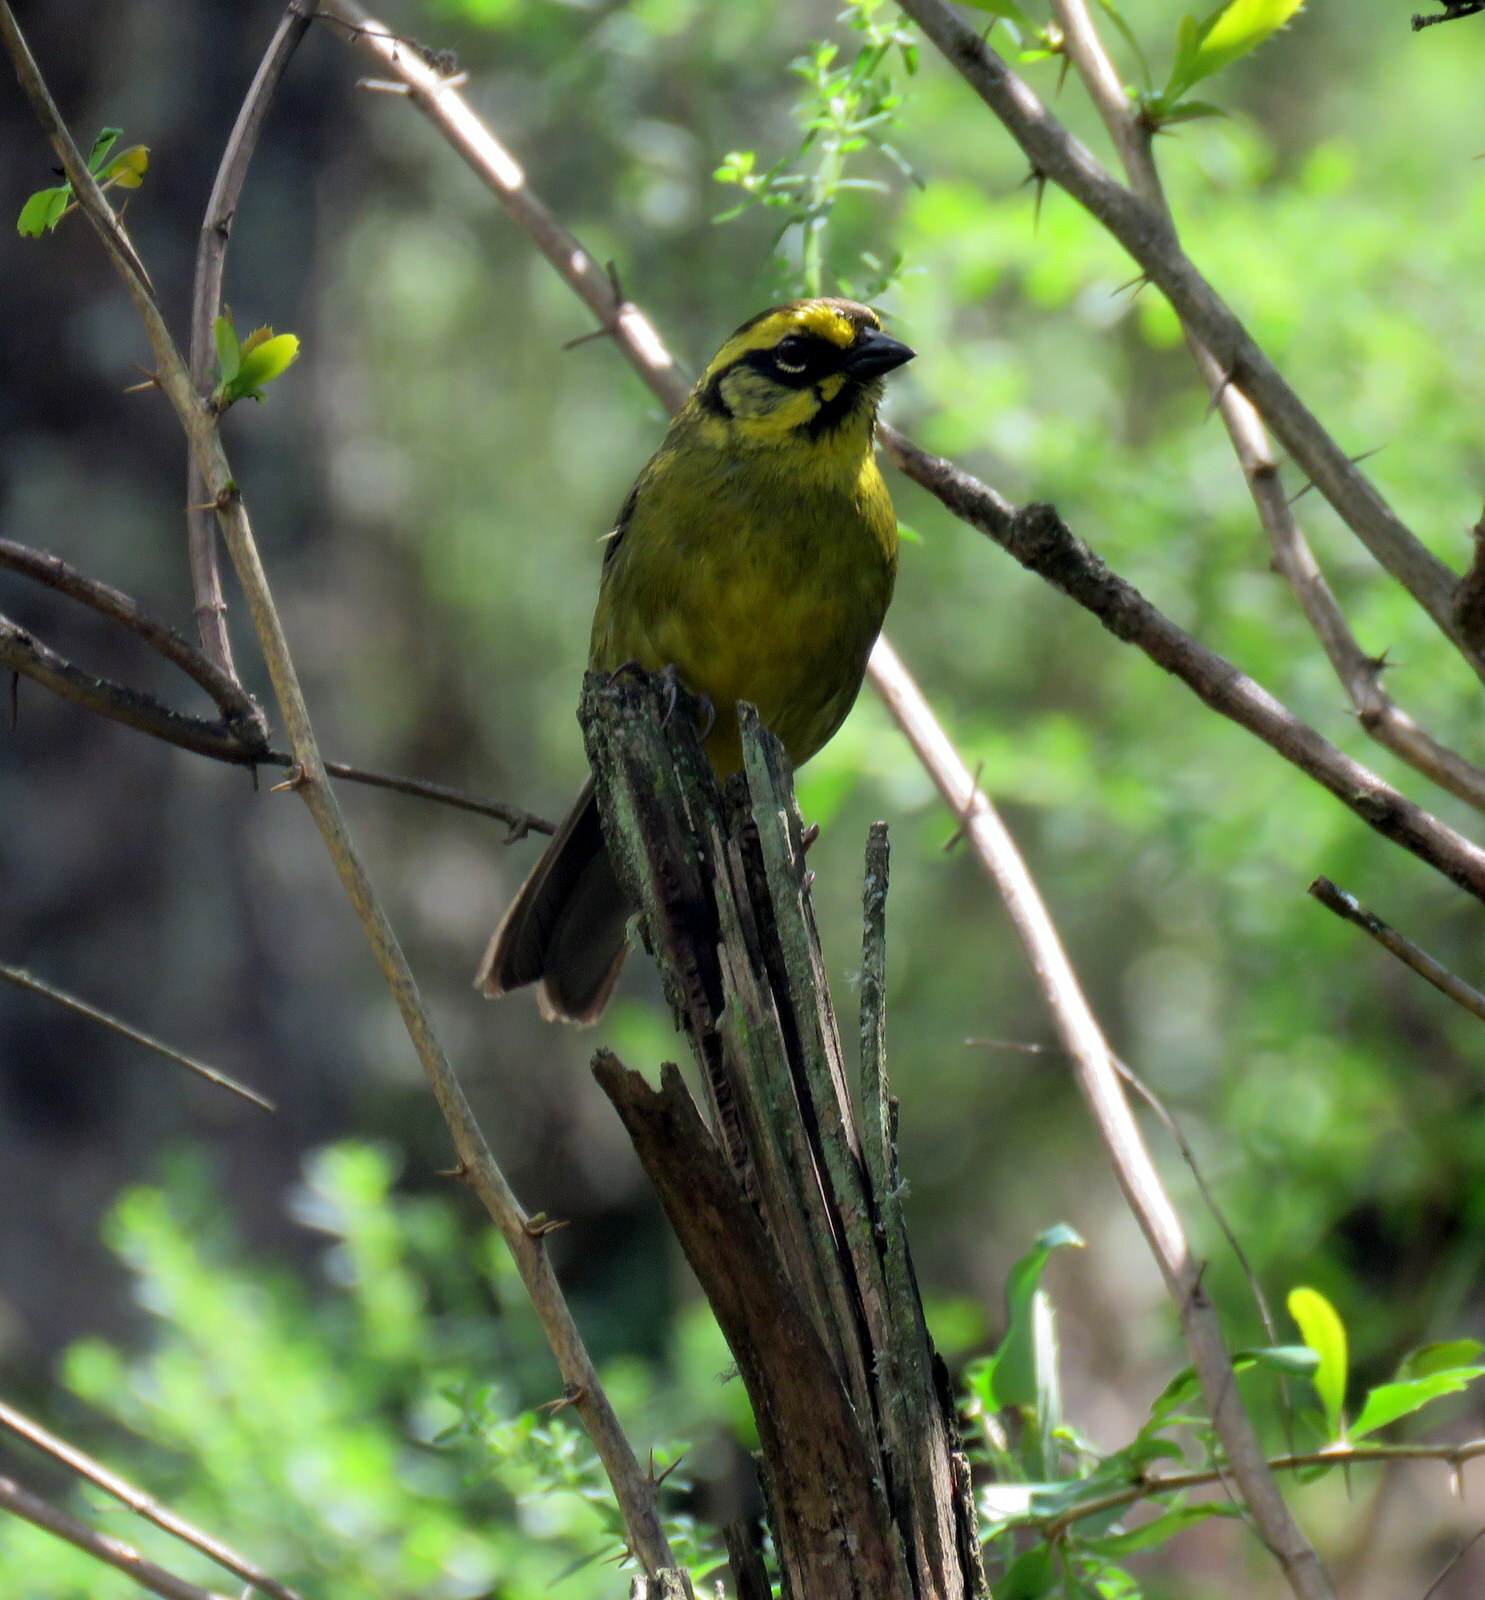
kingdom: Animalia
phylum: Chordata
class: Aves
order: Passeriformes
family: Passerellidae
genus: Atlapetes
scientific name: Atlapetes citrinellus
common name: Yellow-striped brushfinch
